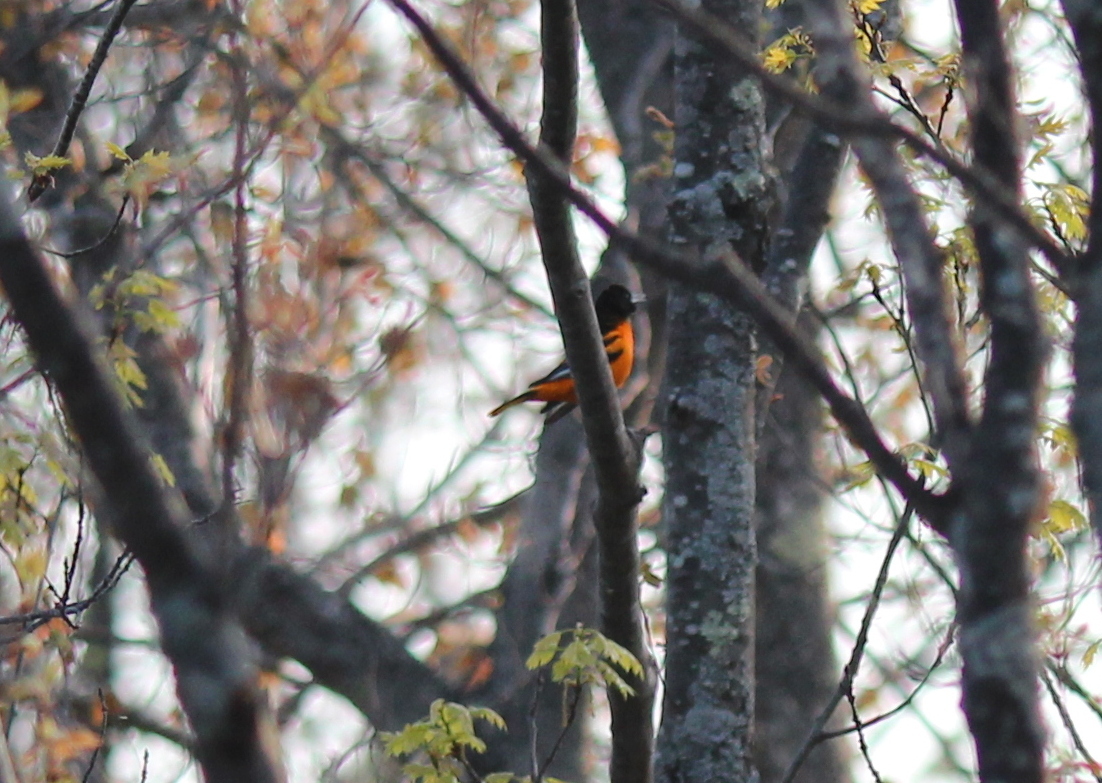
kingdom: Animalia
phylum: Chordata
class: Aves
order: Passeriformes
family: Icteridae
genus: Icterus
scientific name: Icterus galbula
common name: Baltimore oriole
